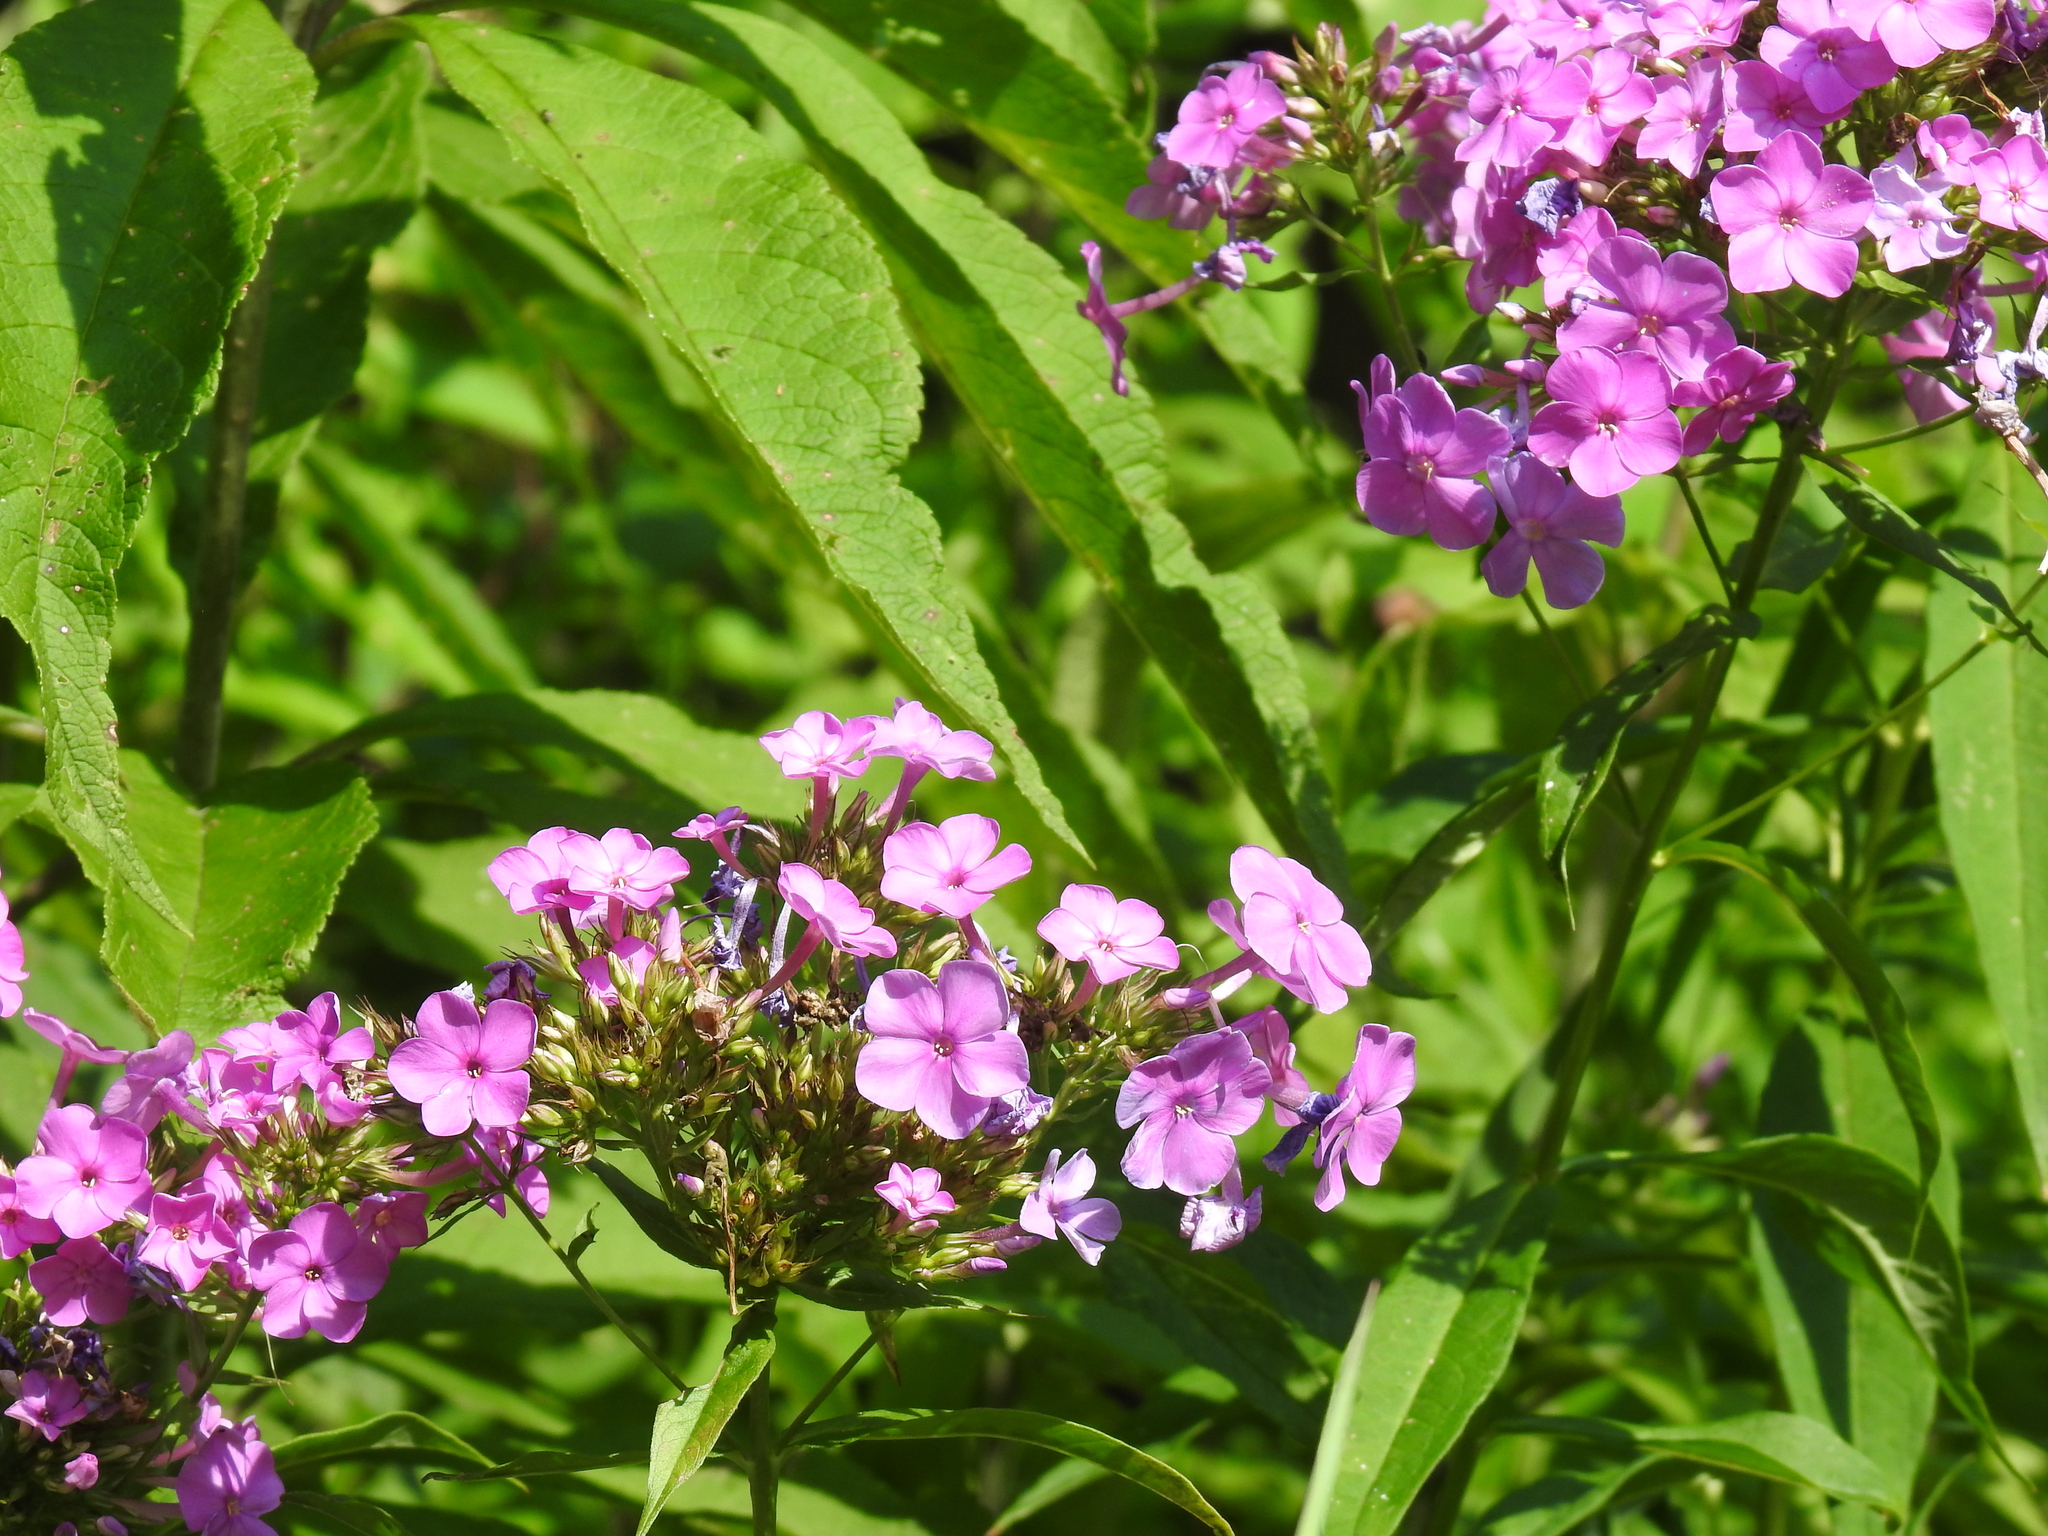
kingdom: Plantae
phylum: Tracheophyta
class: Magnoliopsida
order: Ericales
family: Polemoniaceae
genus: Phlox
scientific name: Phlox paniculata
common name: Fall phlox
